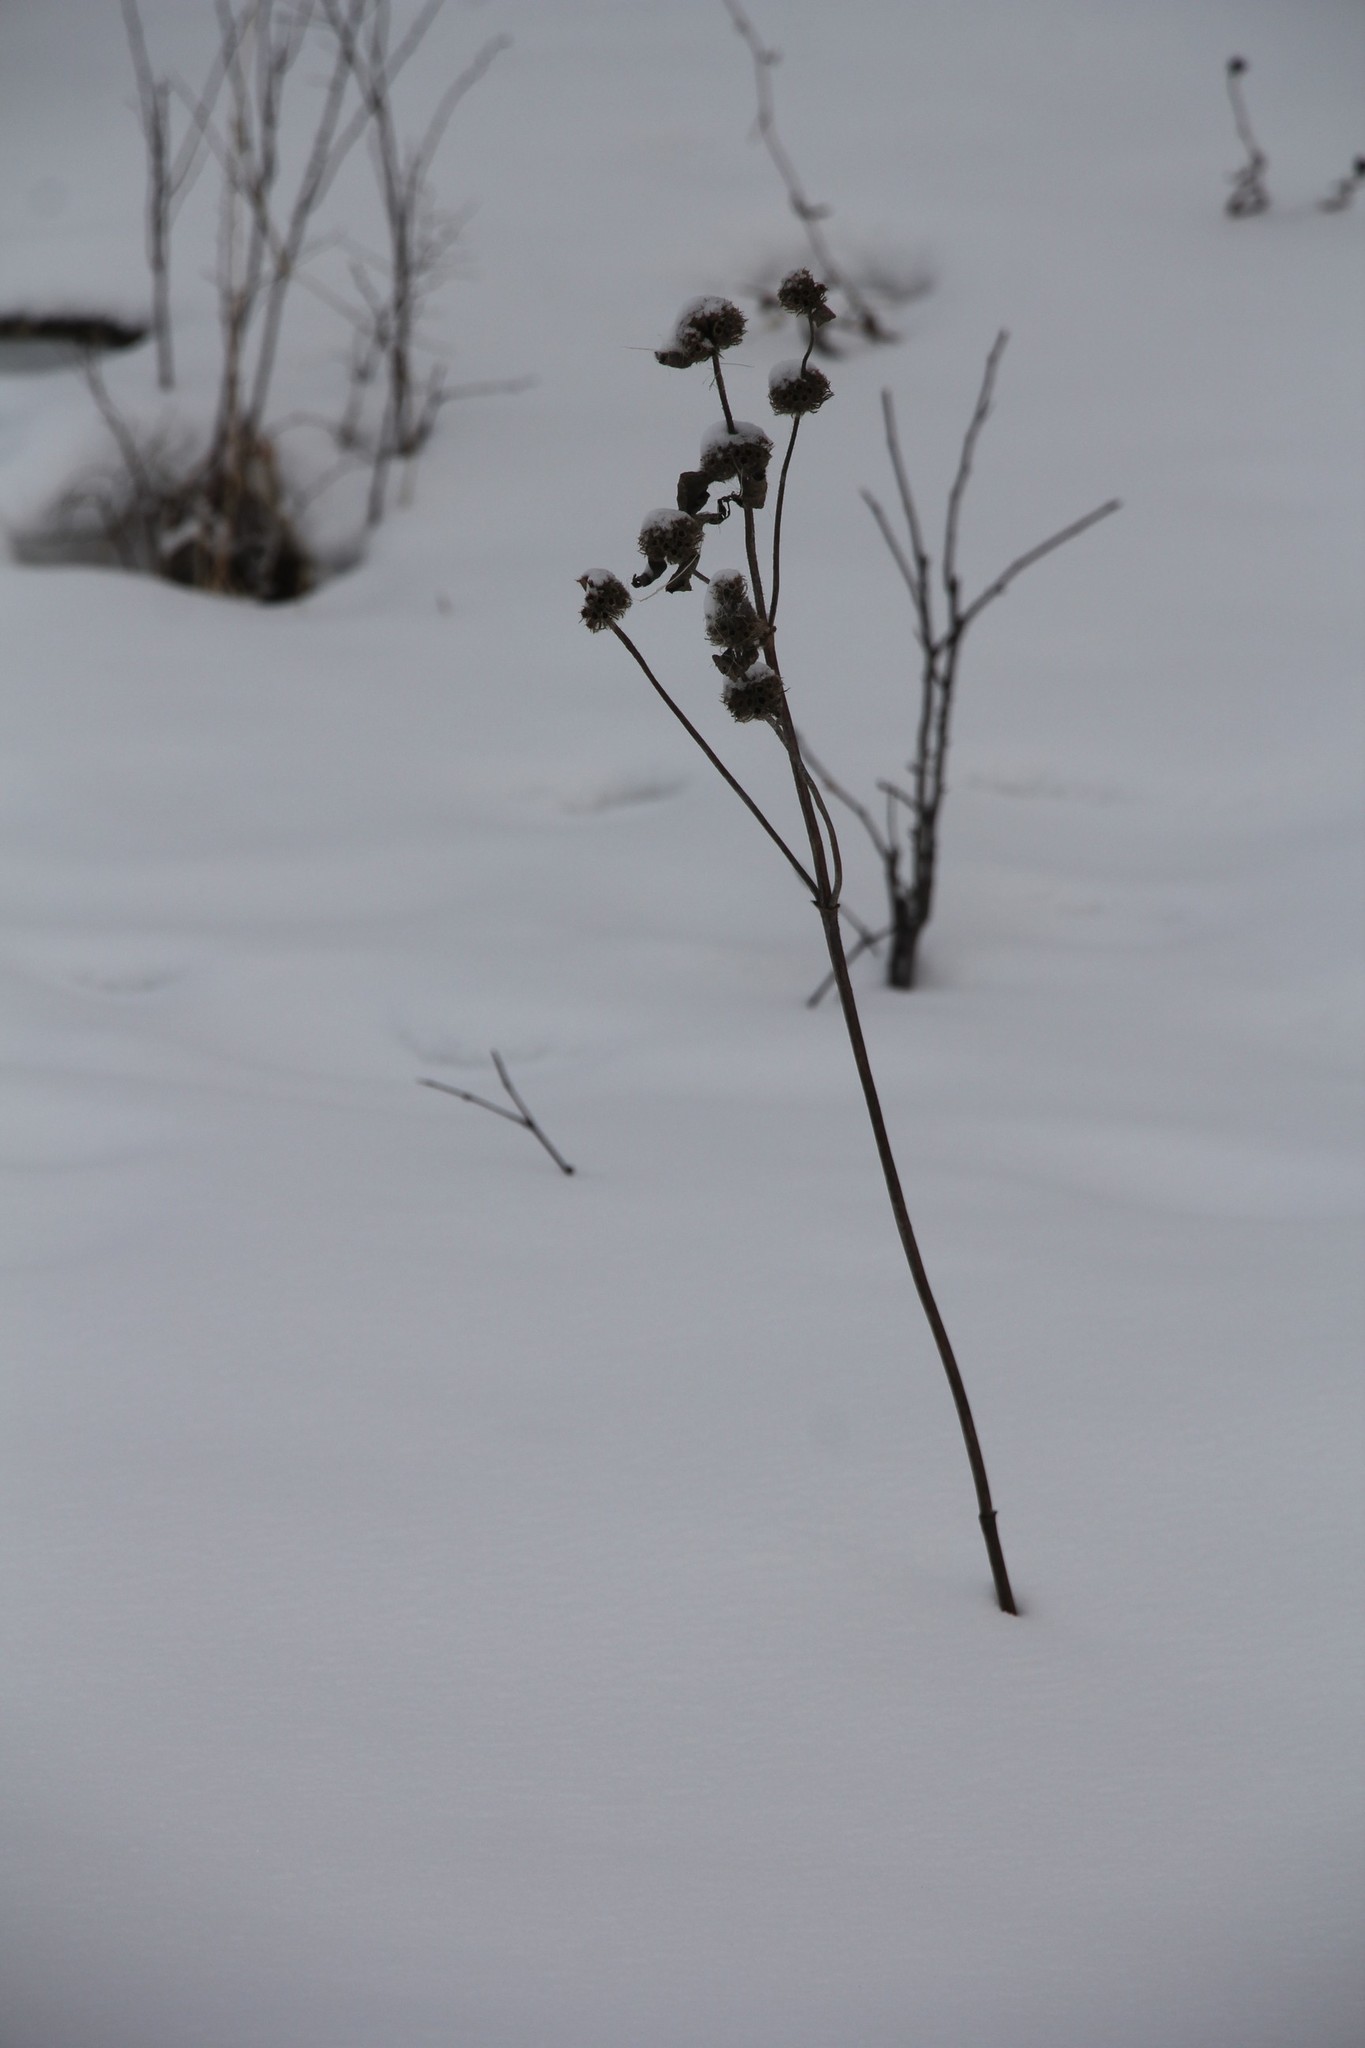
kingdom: Plantae
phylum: Tracheophyta
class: Magnoliopsida
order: Lamiales
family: Lamiaceae
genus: Phlomoides
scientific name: Phlomoides tuberosa
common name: Tuberous jerusalem sage
